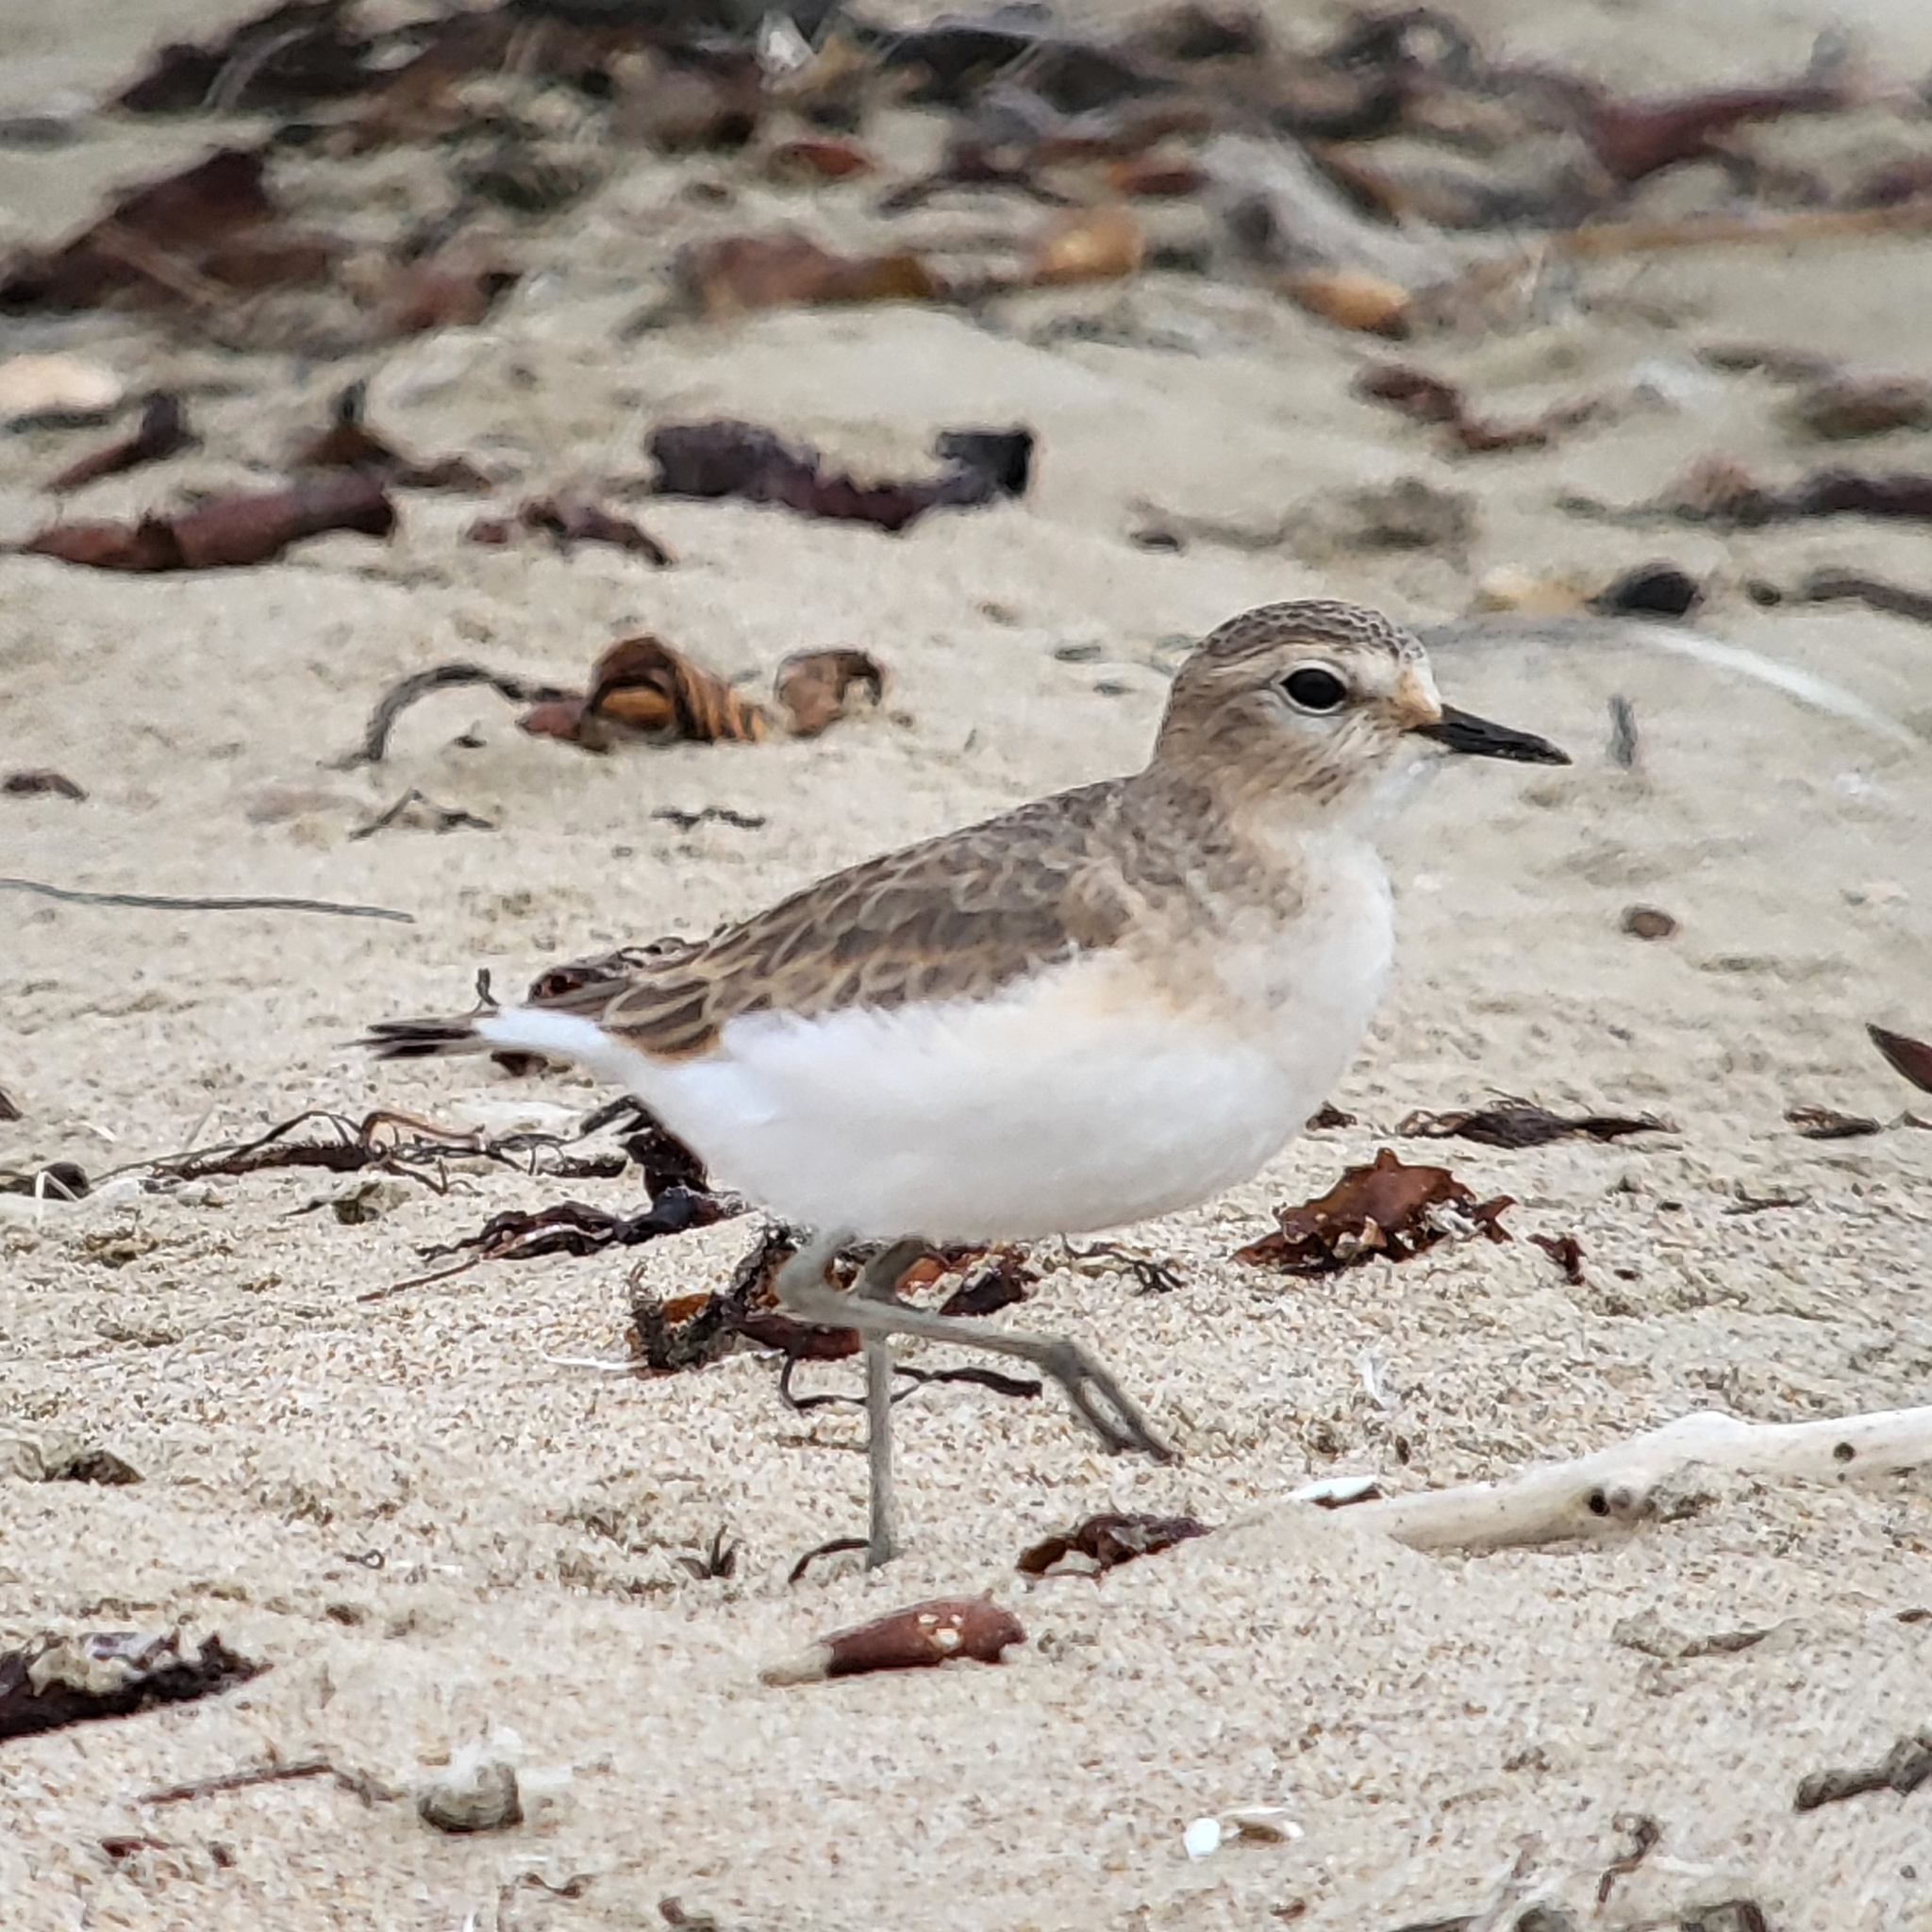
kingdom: Animalia
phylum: Chordata
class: Aves
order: Charadriiformes
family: Charadriidae
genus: Anarhynchus
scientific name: Anarhynchus
